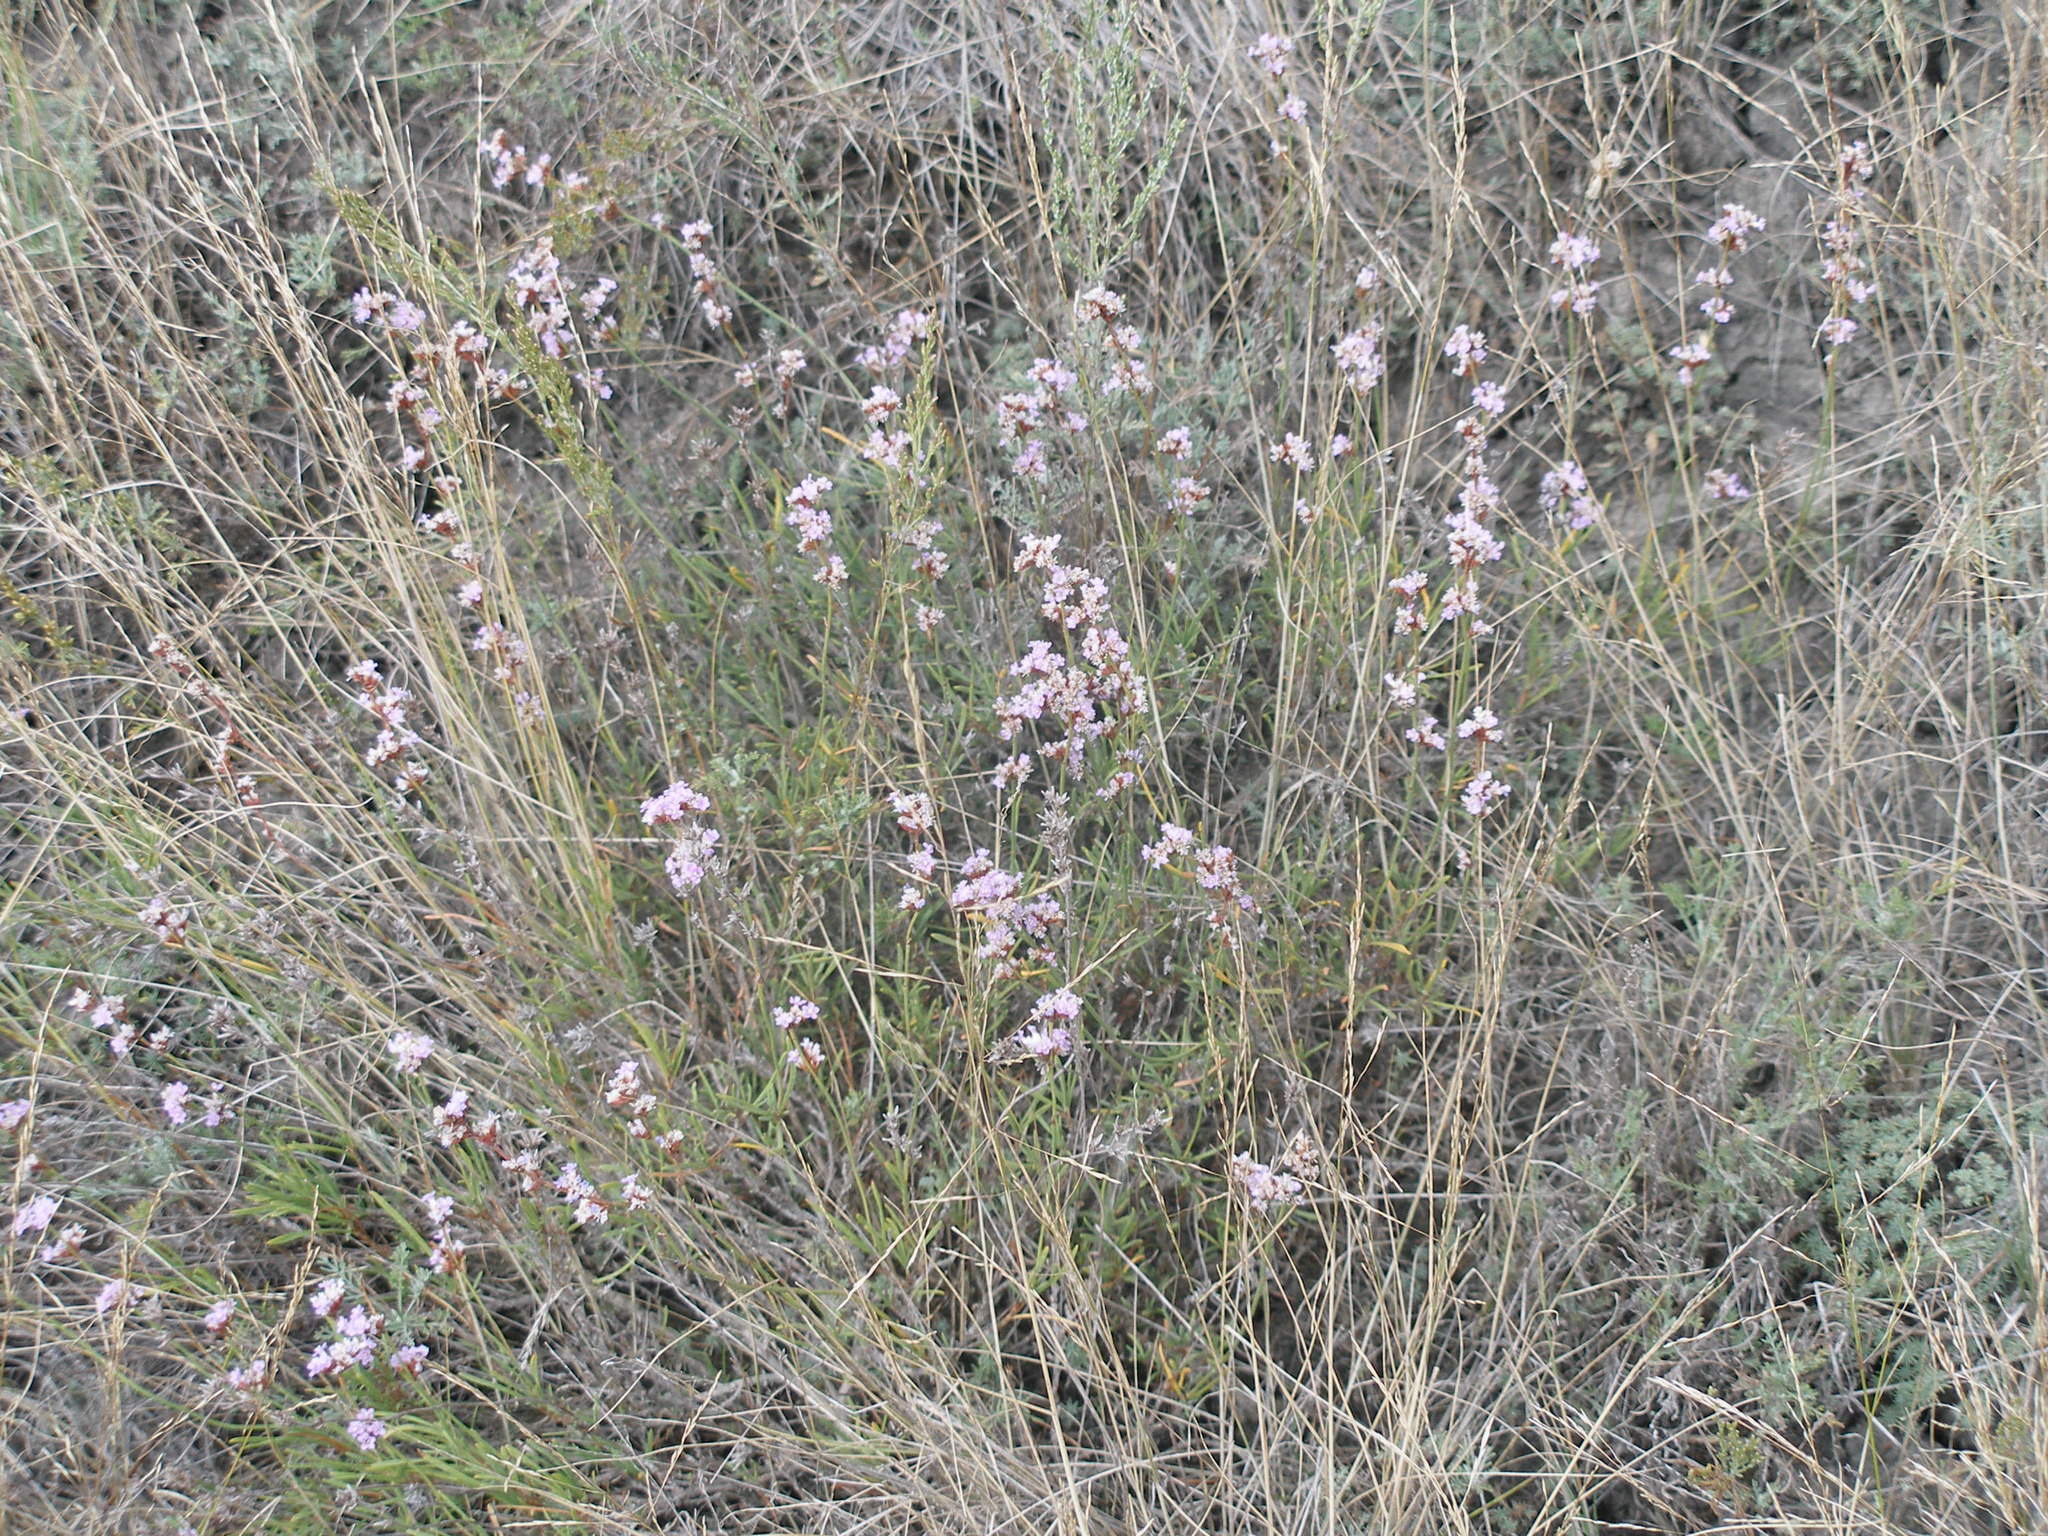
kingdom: Plantae
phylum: Tracheophyta
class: Magnoliopsida
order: Caryophyllales
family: Plumbaginaceae
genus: Limonium
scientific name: Limonium suffruticosum
